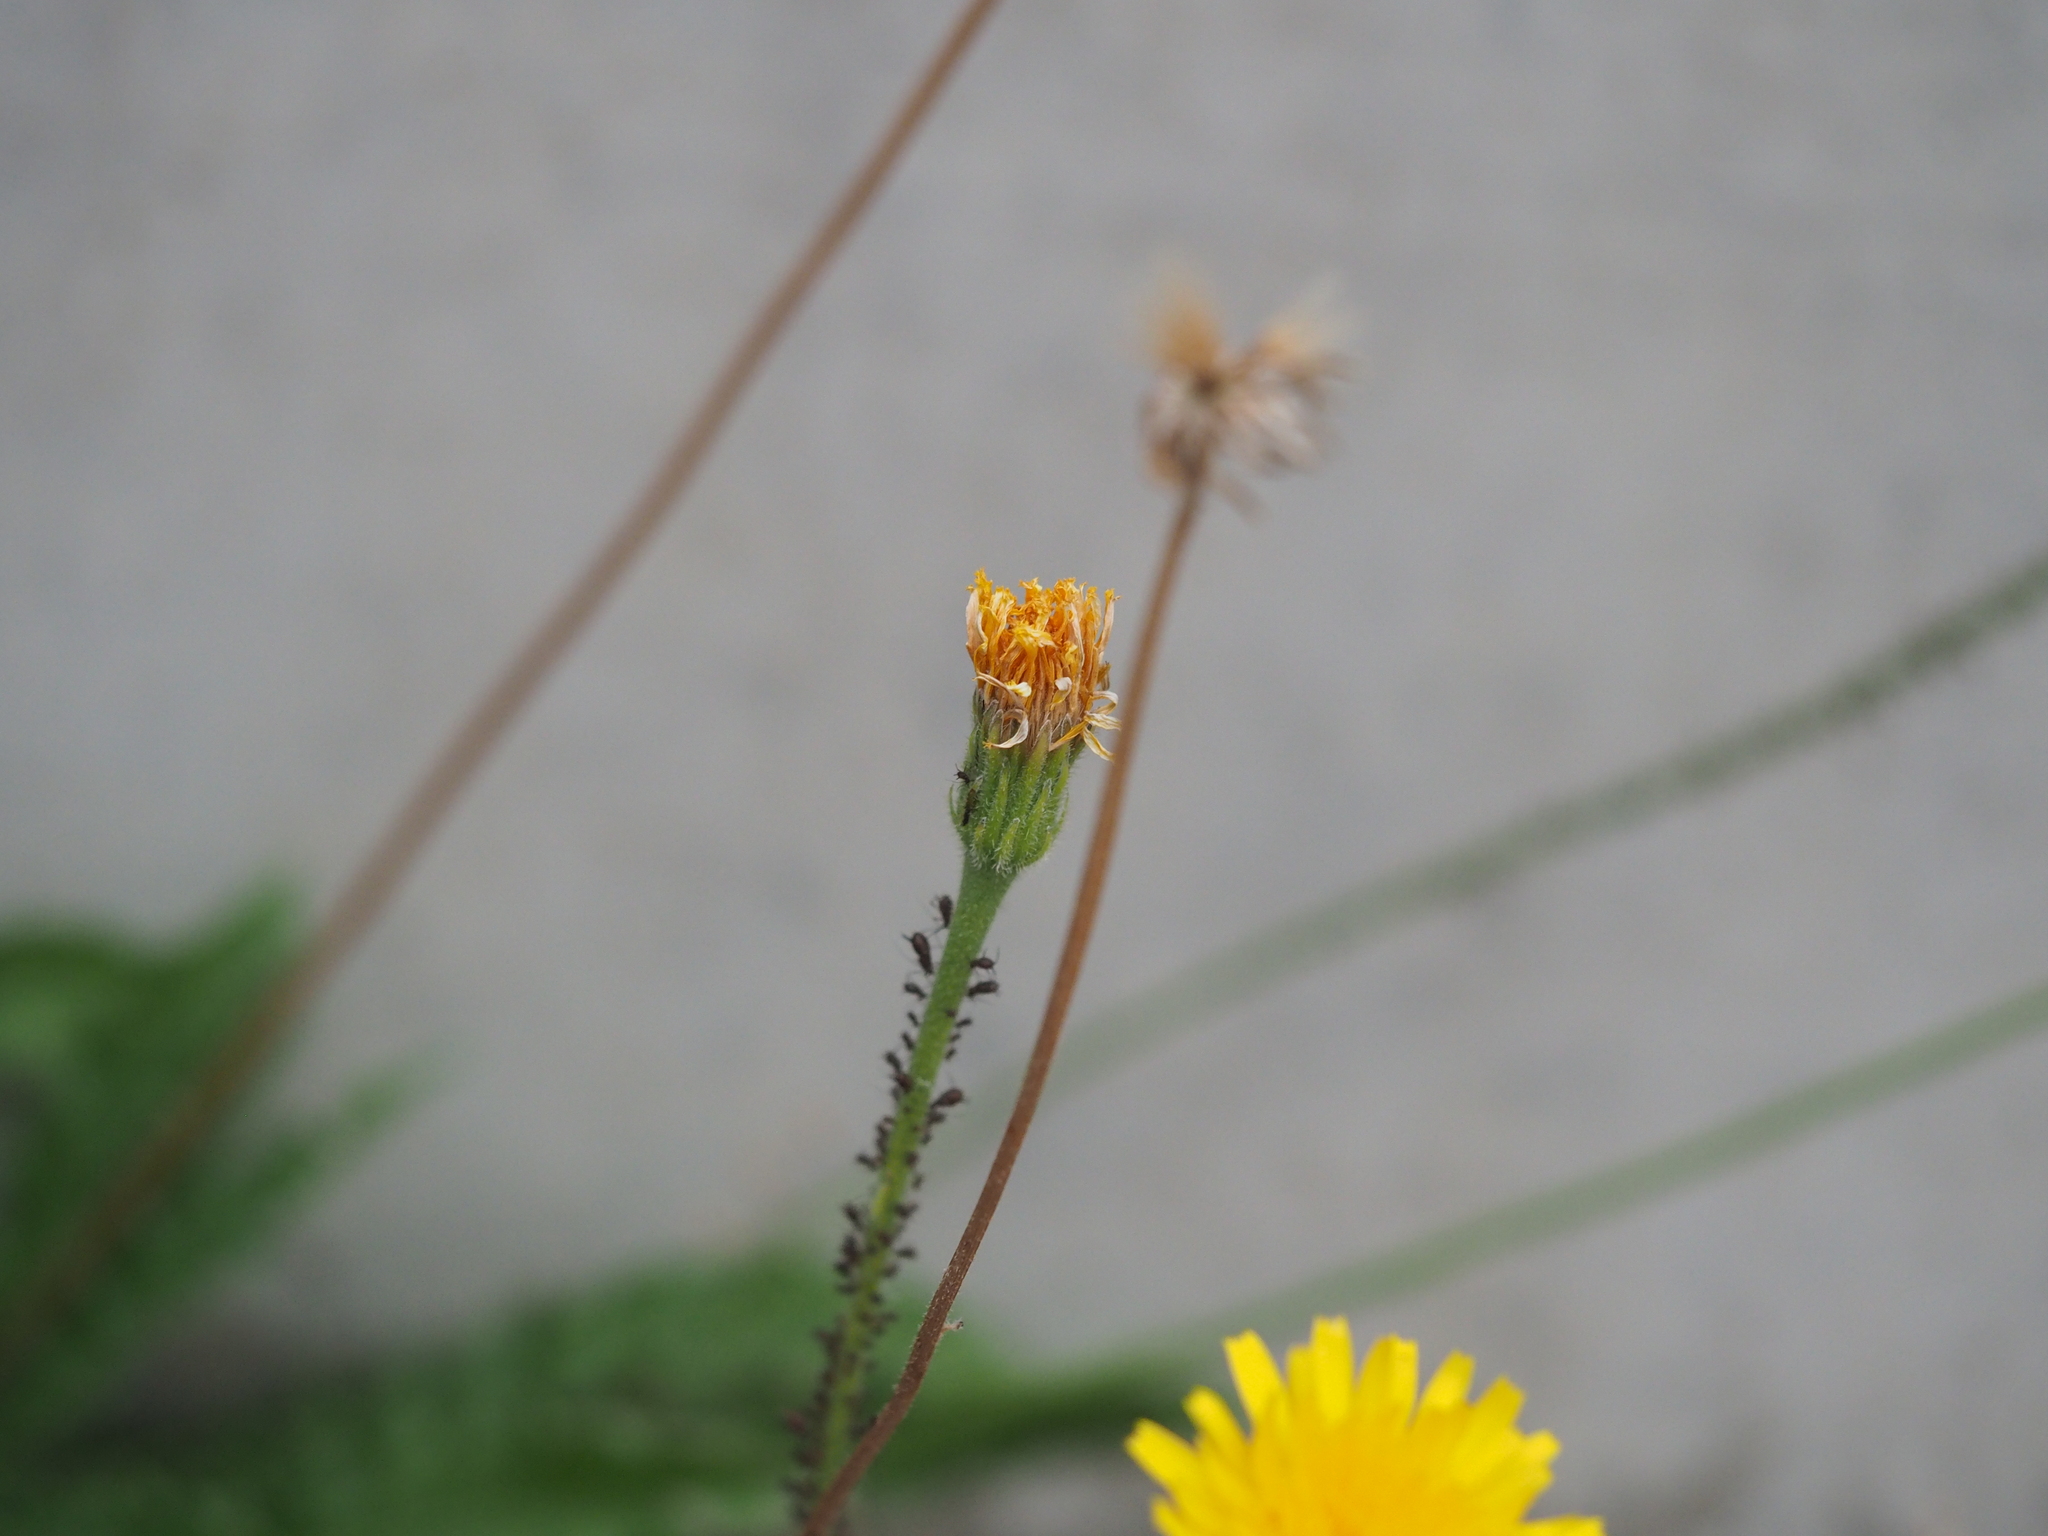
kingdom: Plantae
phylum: Tracheophyta
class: Magnoliopsida
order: Asterales
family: Asteraceae
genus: Leontodon
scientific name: Leontodon hispidus
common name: Rough hawkbit
